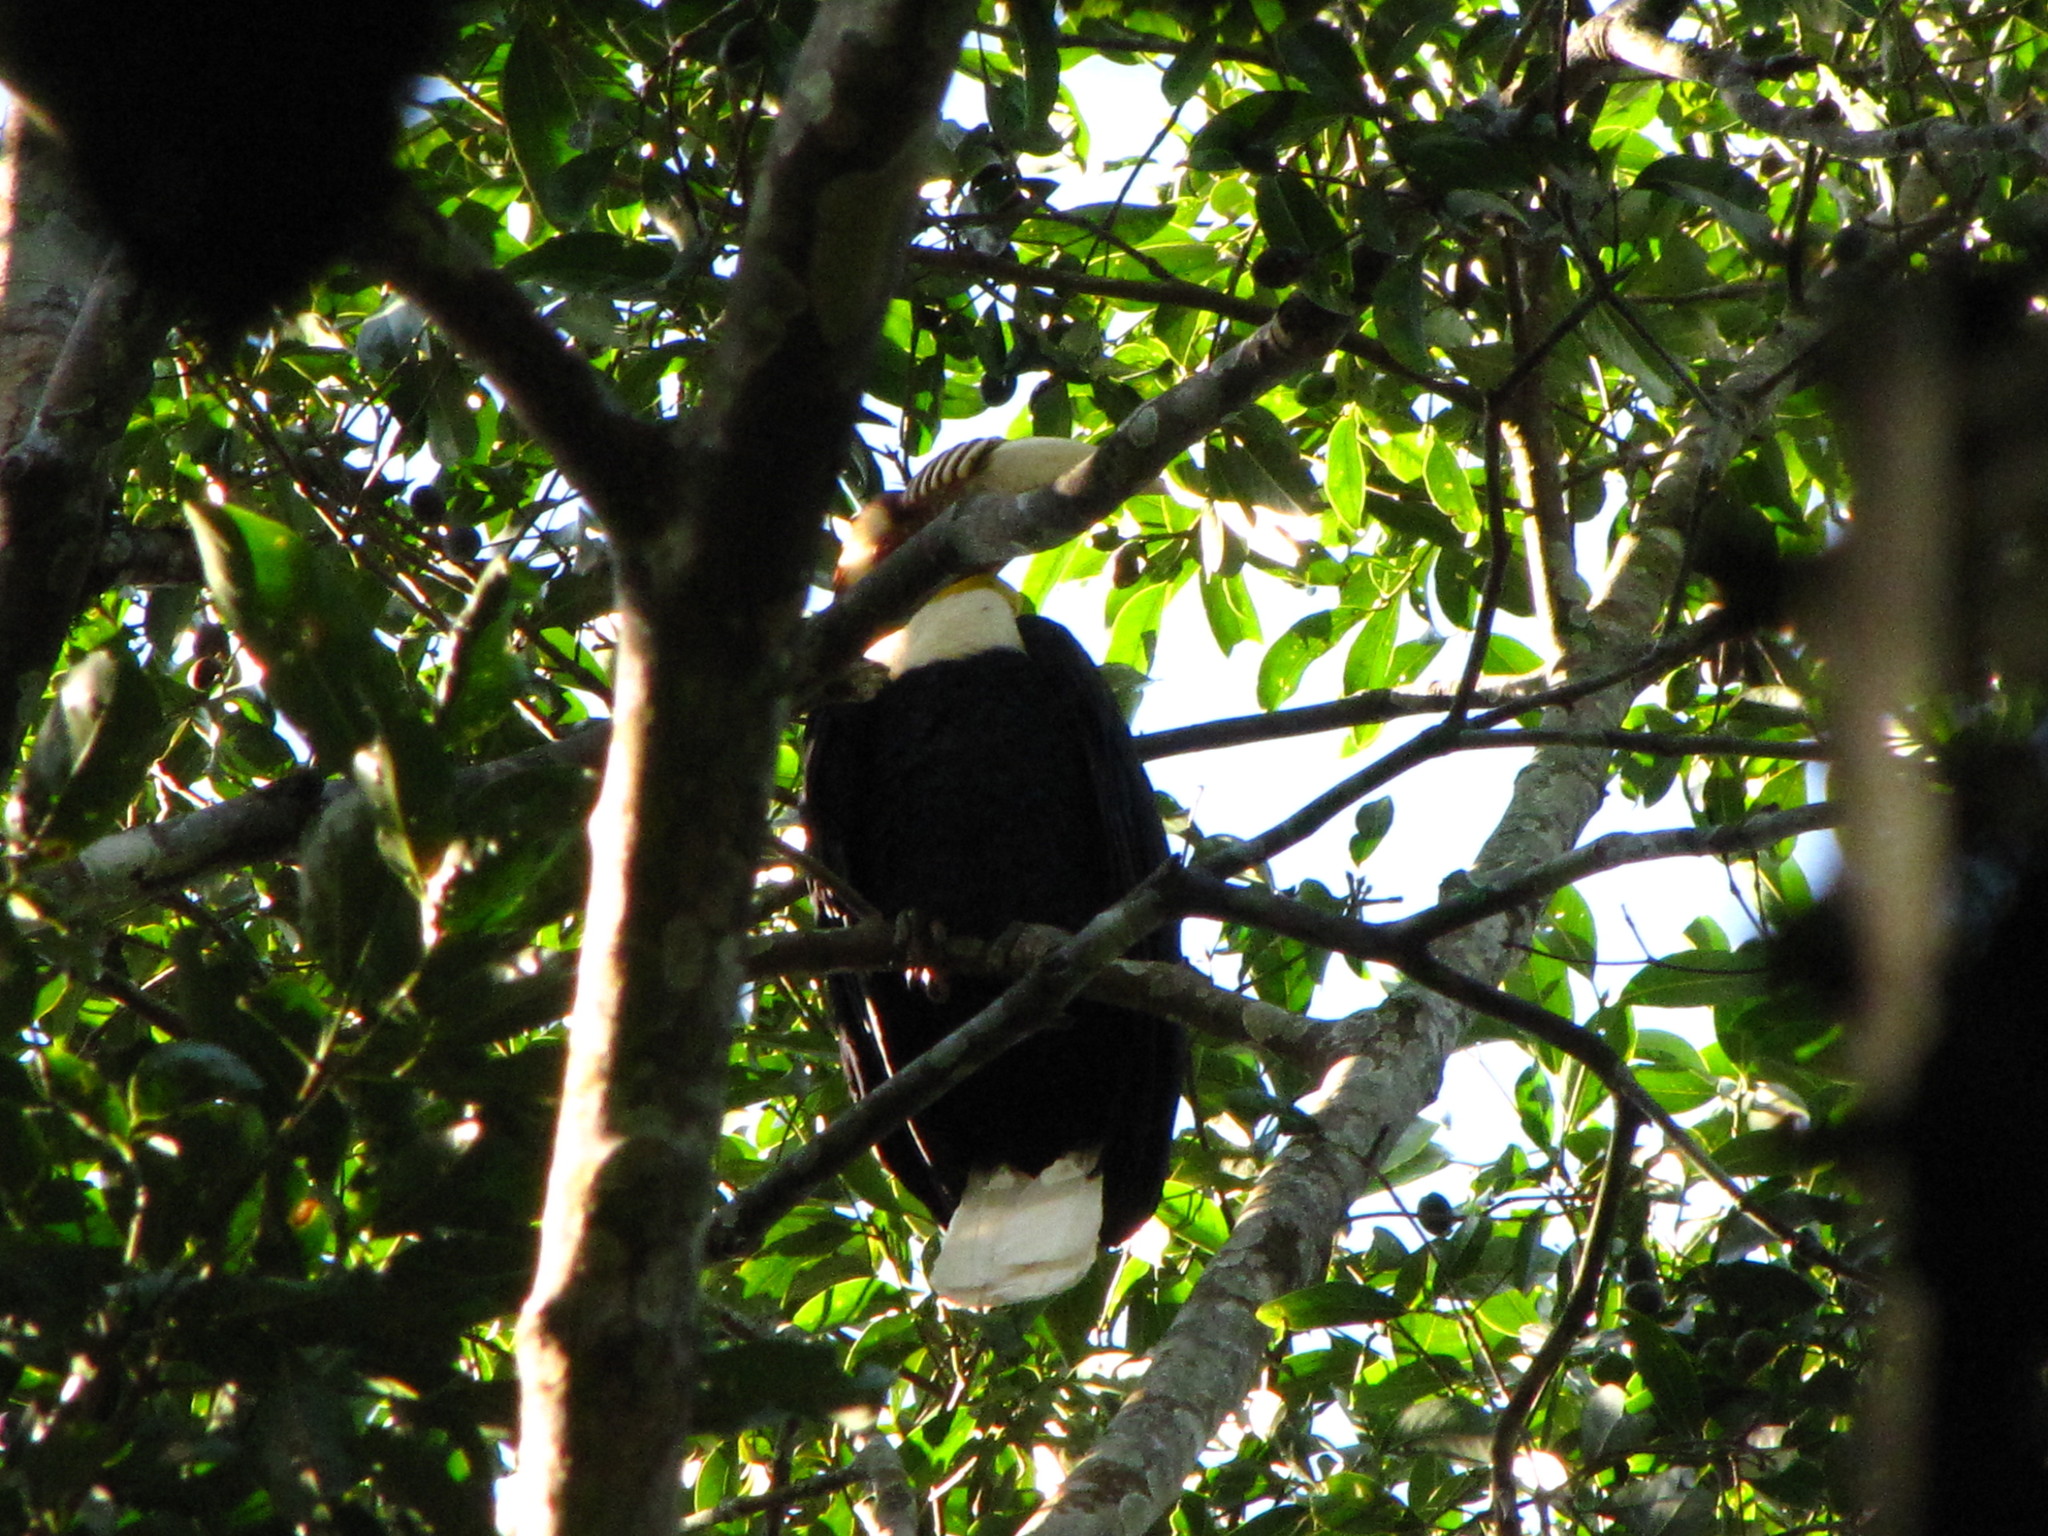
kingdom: Animalia
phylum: Chordata
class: Aves
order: Bucerotiformes
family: Bucerotidae
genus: Rhyticeros
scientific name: Rhyticeros undulatus
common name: Wreathed hornbill
